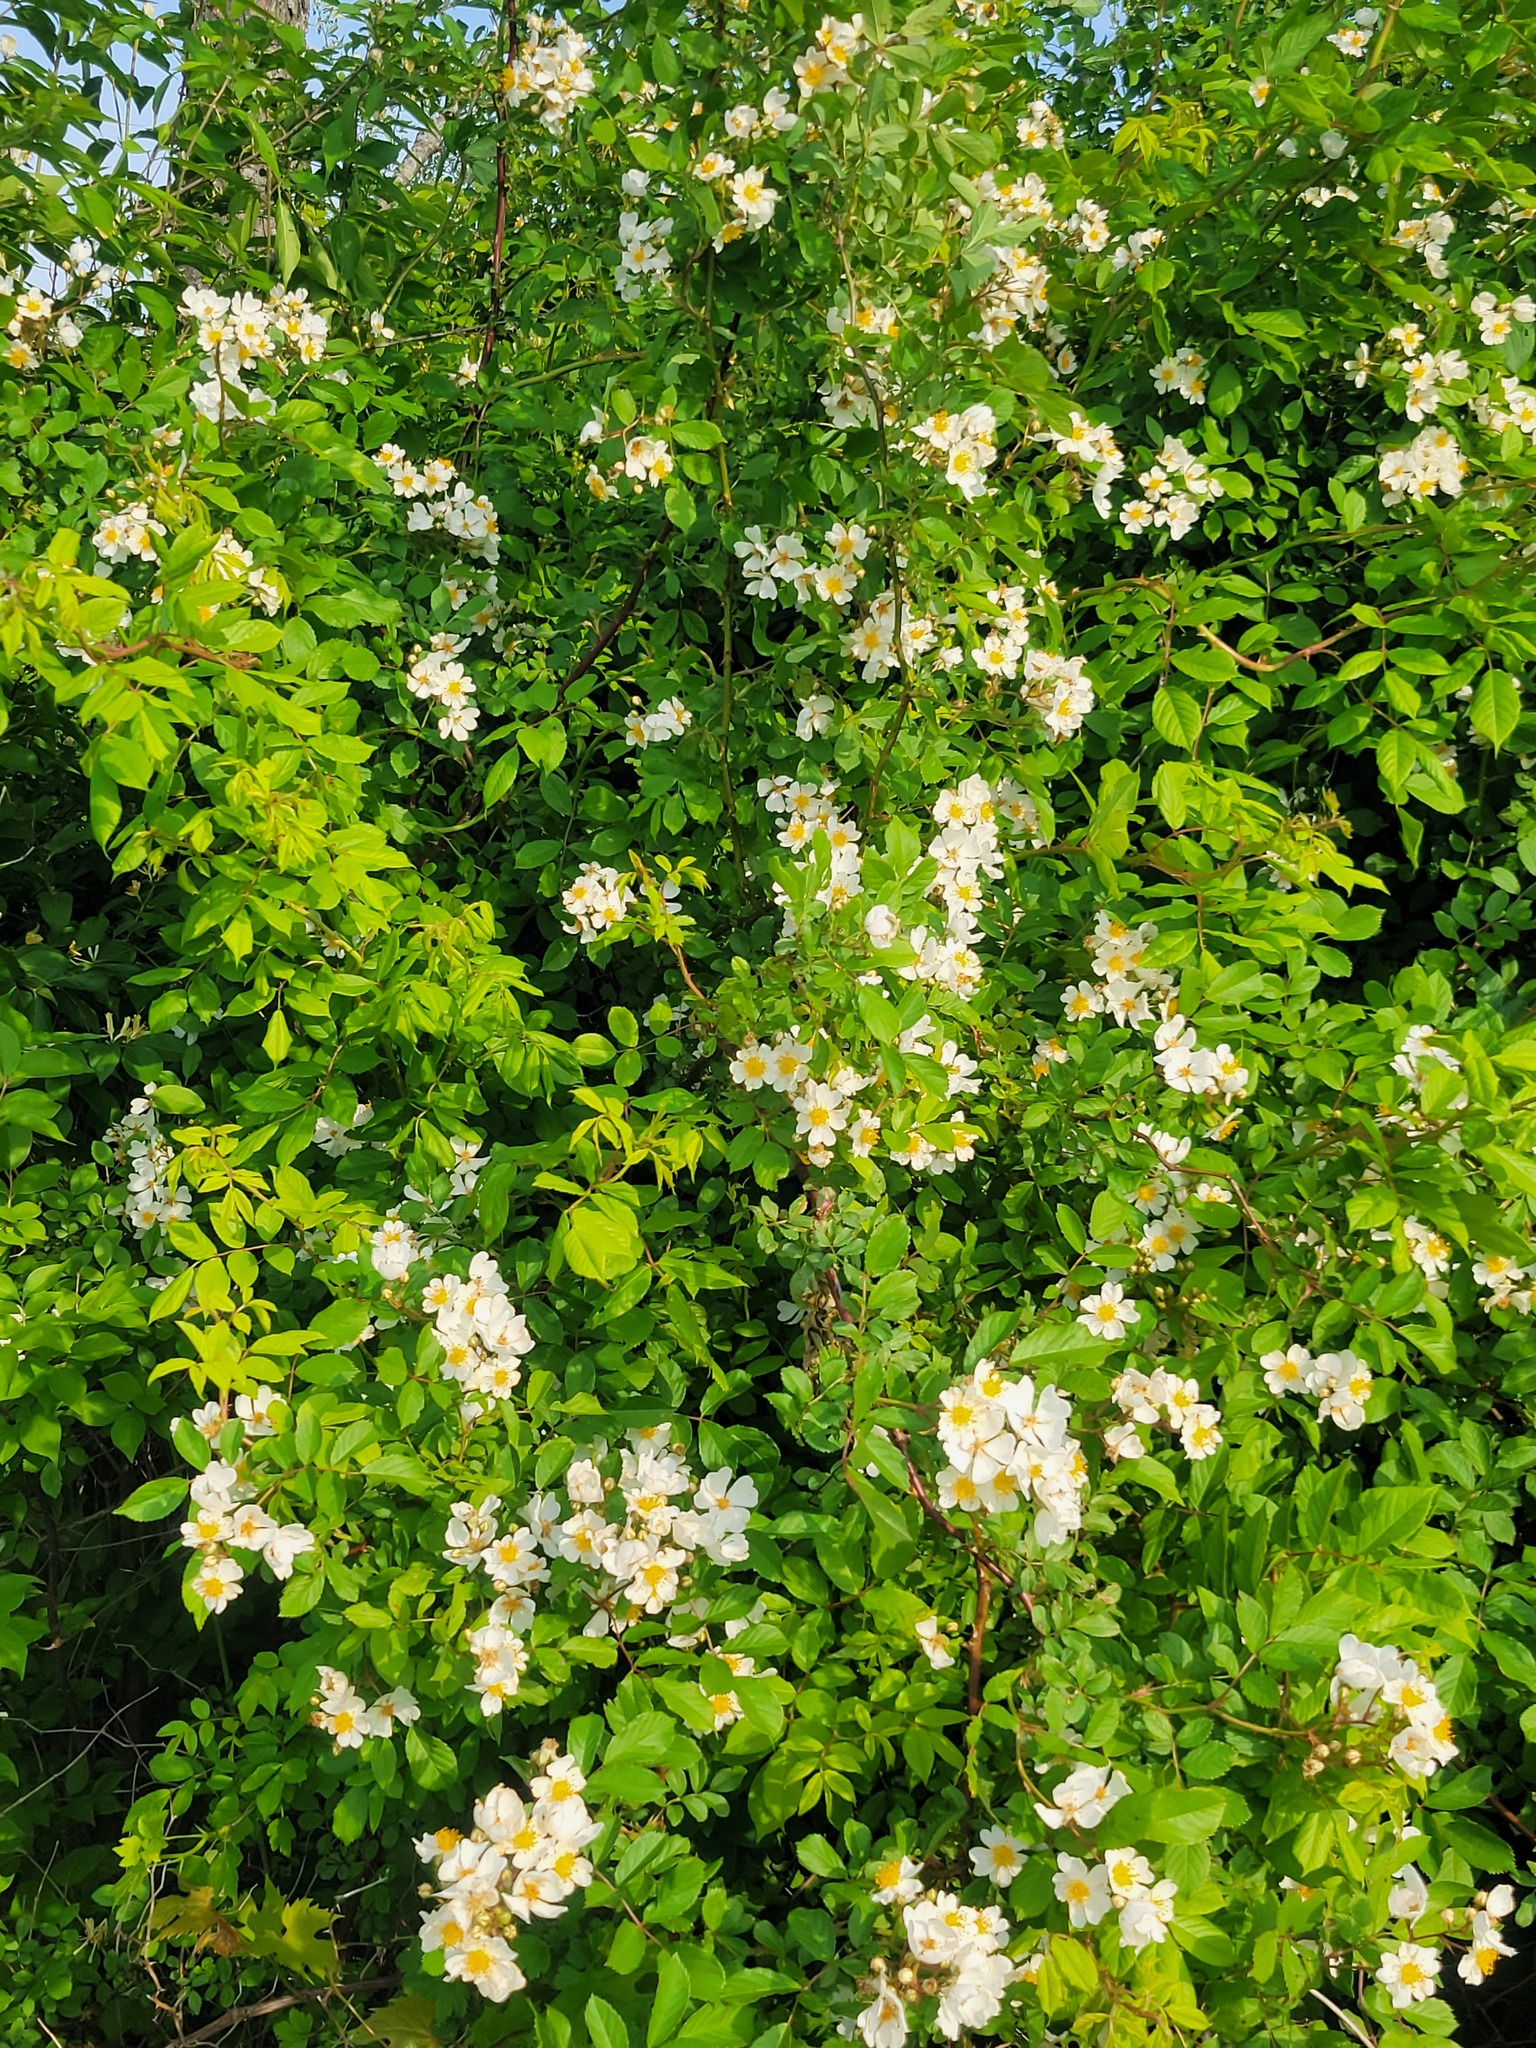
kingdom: Plantae
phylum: Tracheophyta
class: Magnoliopsida
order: Rosales
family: Rosaceae
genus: Rosa
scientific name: Rosa multiflora
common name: Multiflora rose
